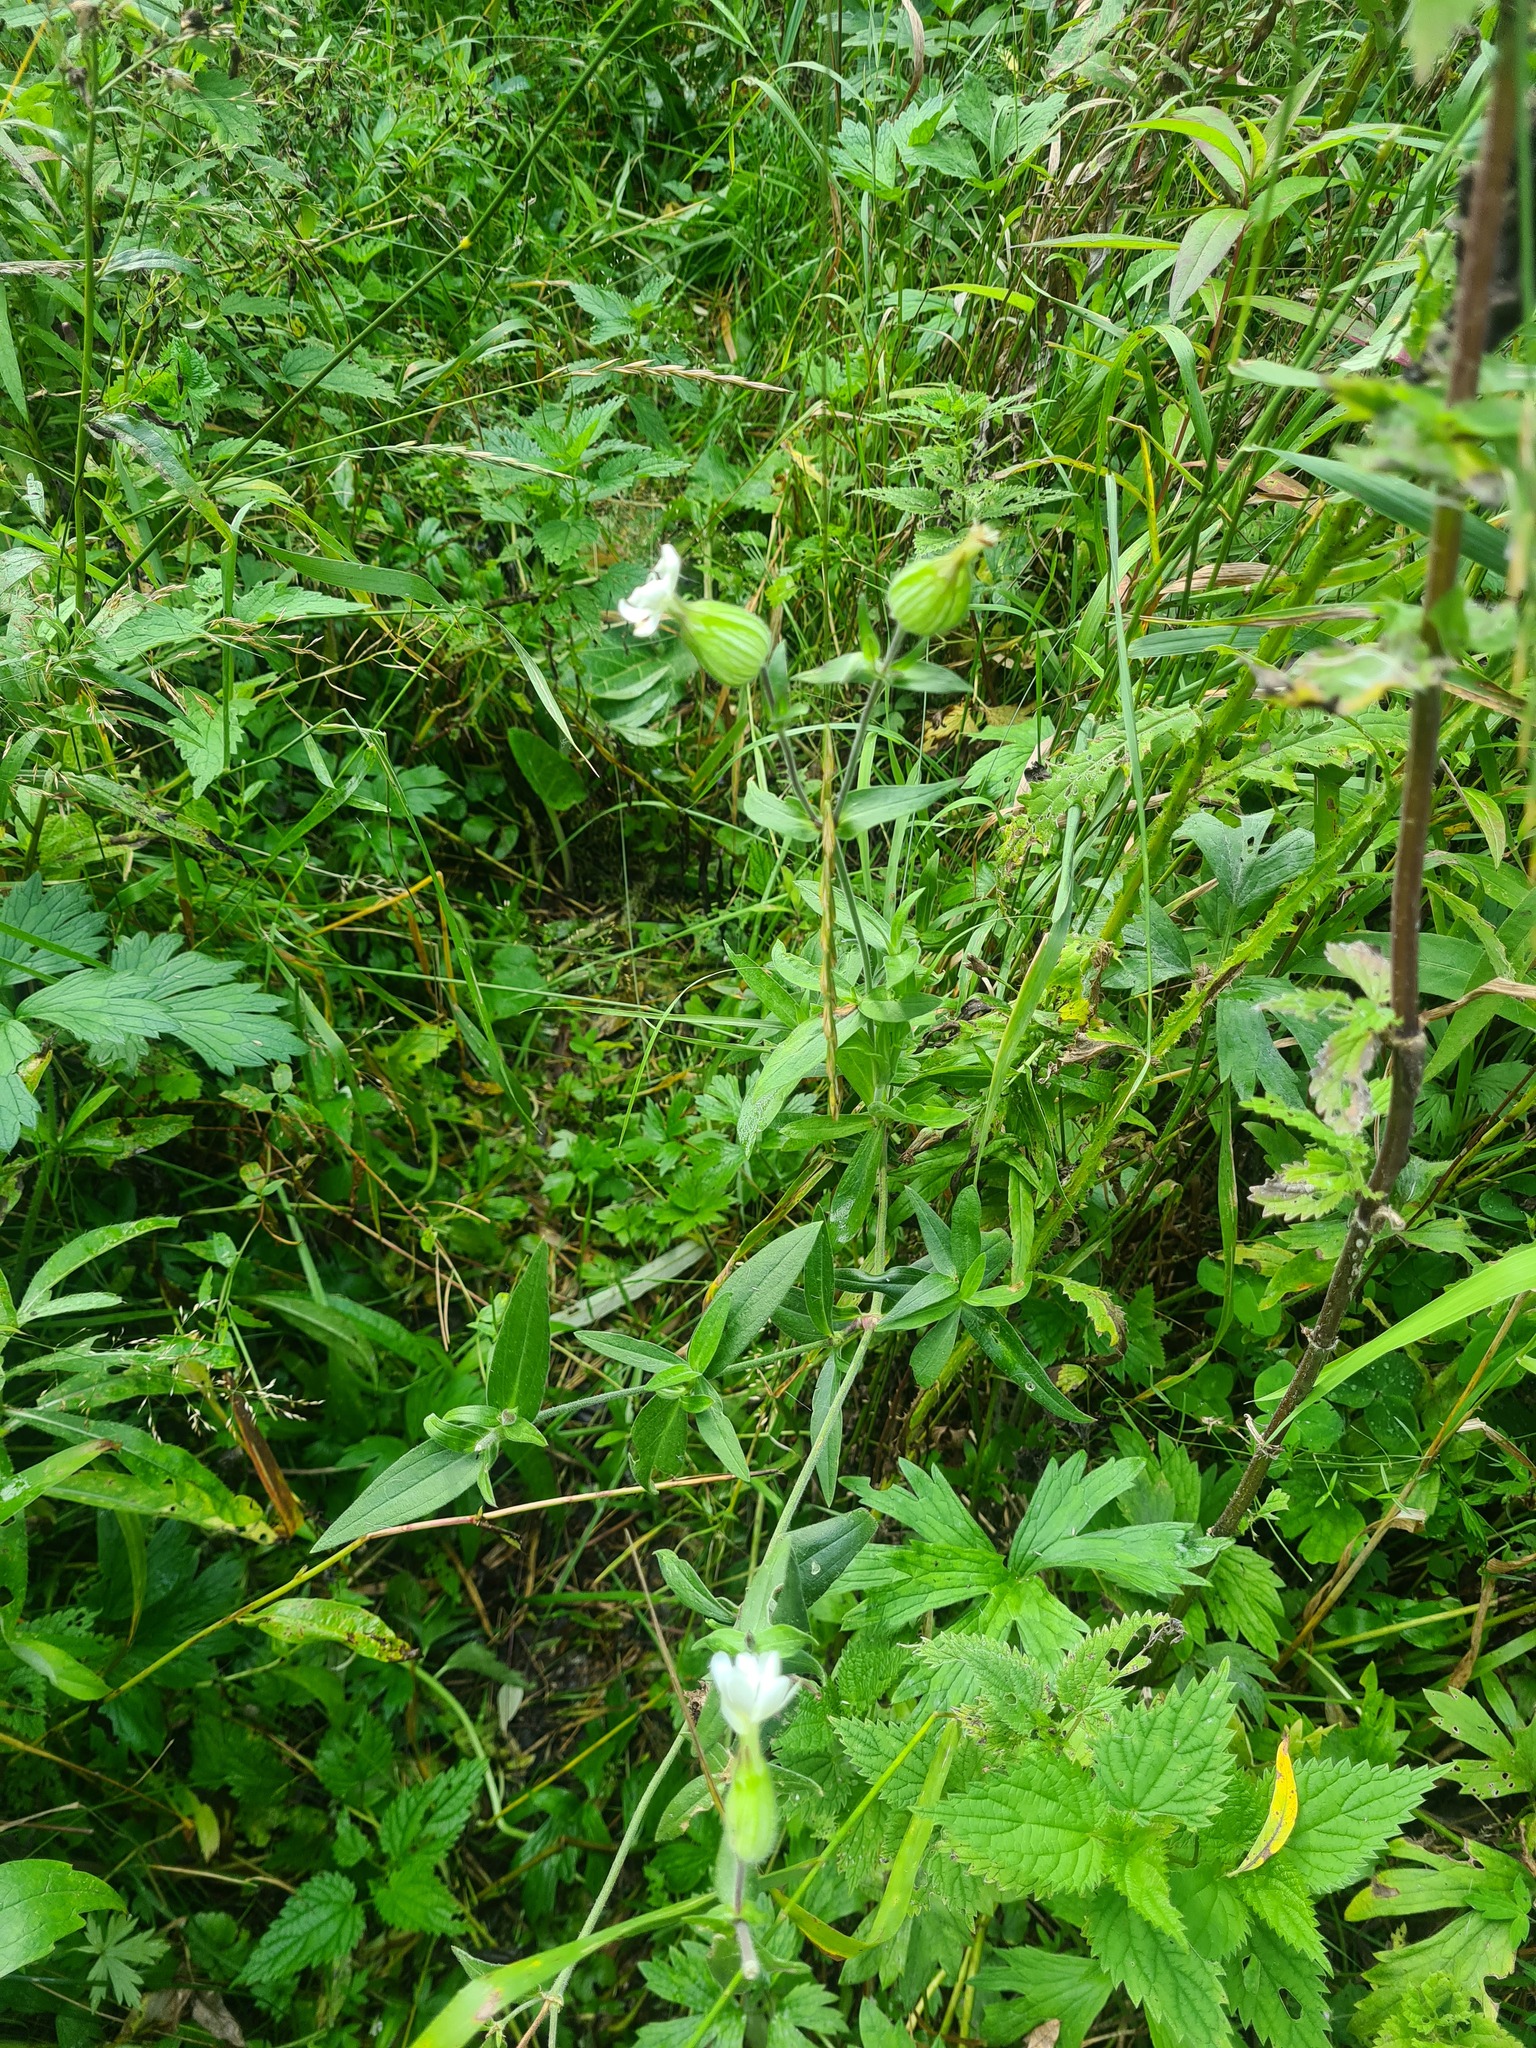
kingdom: Plantae
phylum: Tracheophyta
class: Magnoliopsida
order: Caryophyllales
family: Caryophyllaceae
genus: Silene
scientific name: Silene latifolia
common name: White campion
